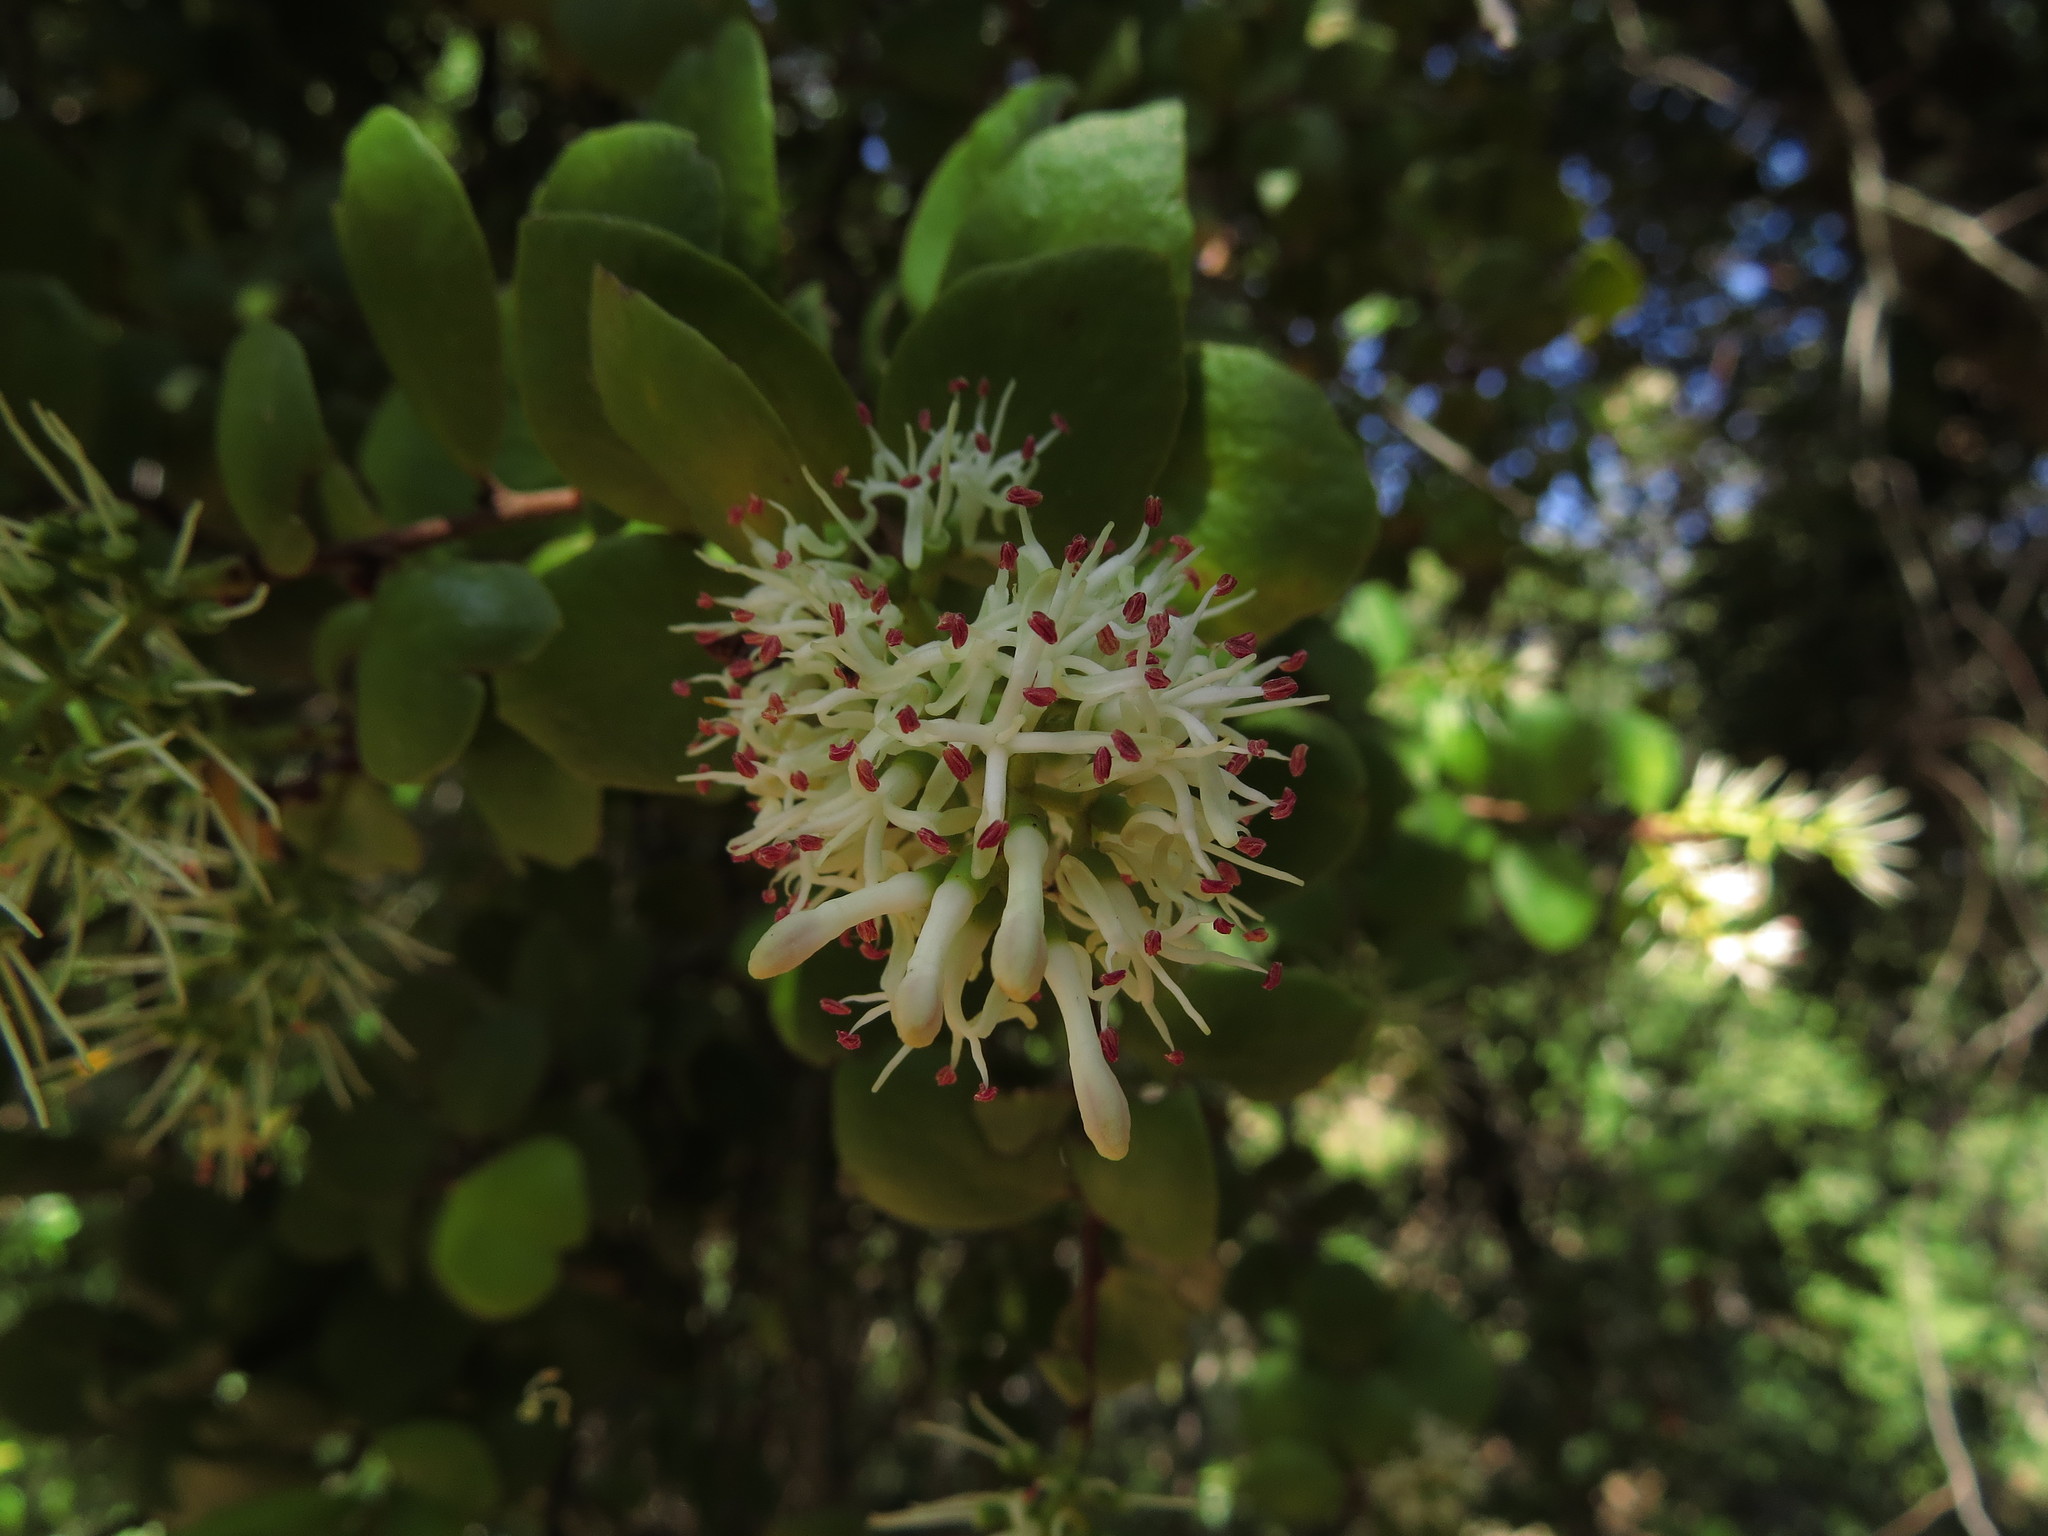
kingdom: Plantae
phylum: Tracheophyta
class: Magnoliopsida
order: Santalales
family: Loranthaceae
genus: Notanthera
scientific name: Notanthera heterophylla
